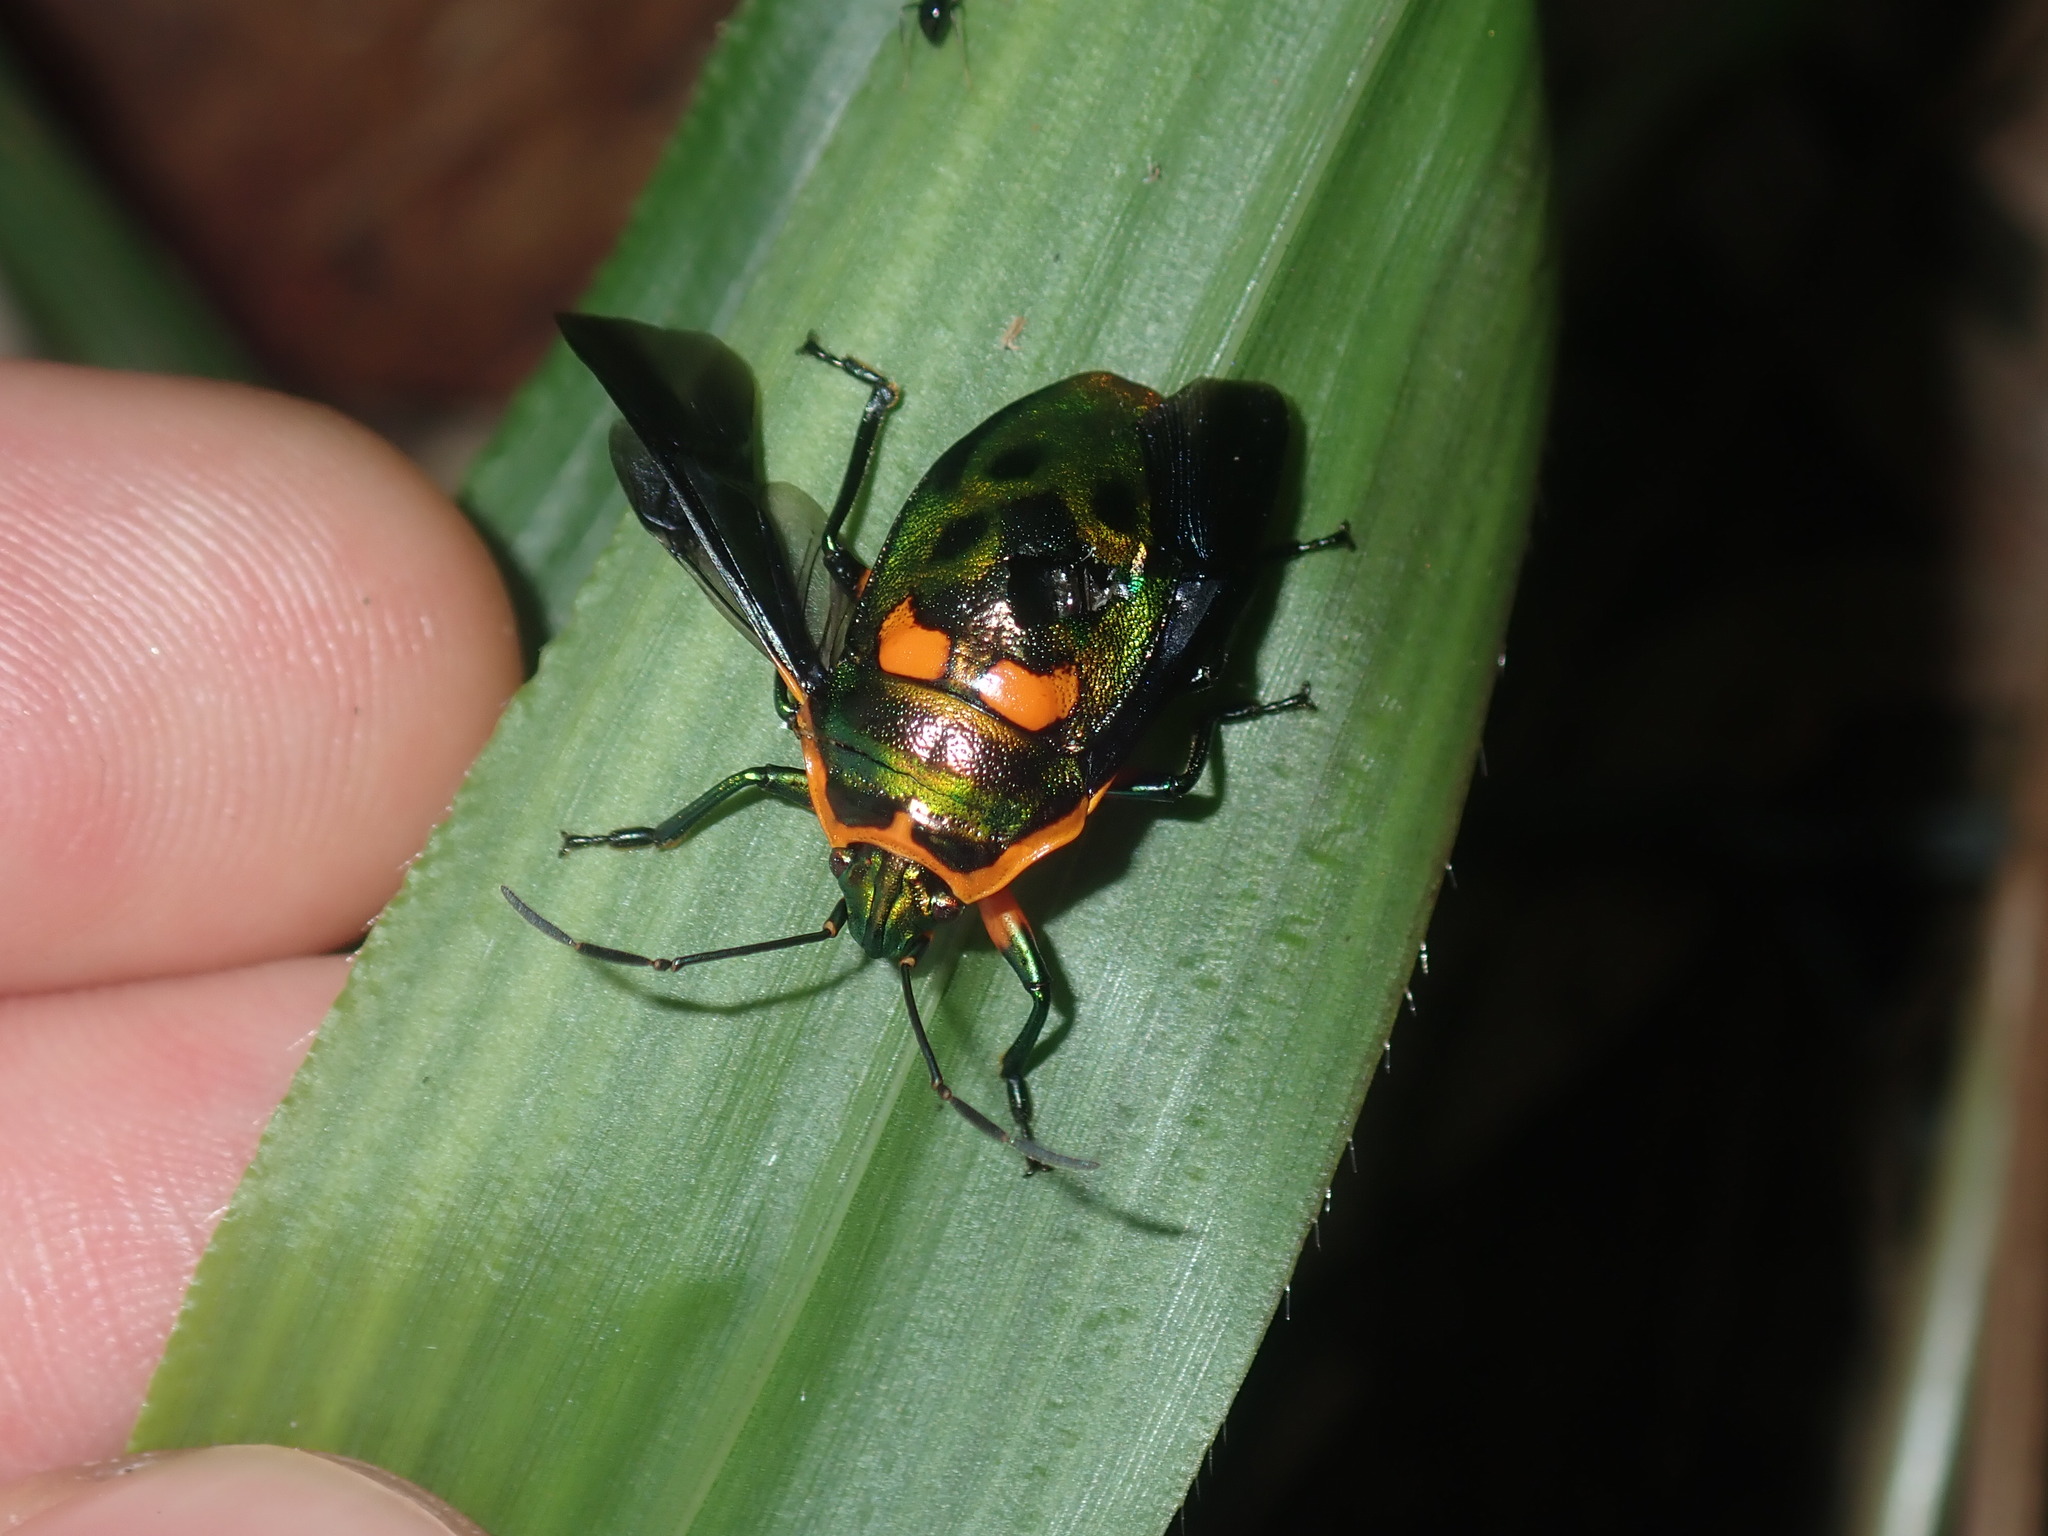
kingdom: Animalia
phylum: Arthropoda
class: Insecta
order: Hemiptera
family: Scutelleridae
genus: Scutiphora
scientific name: Scutiphora pedicellata
